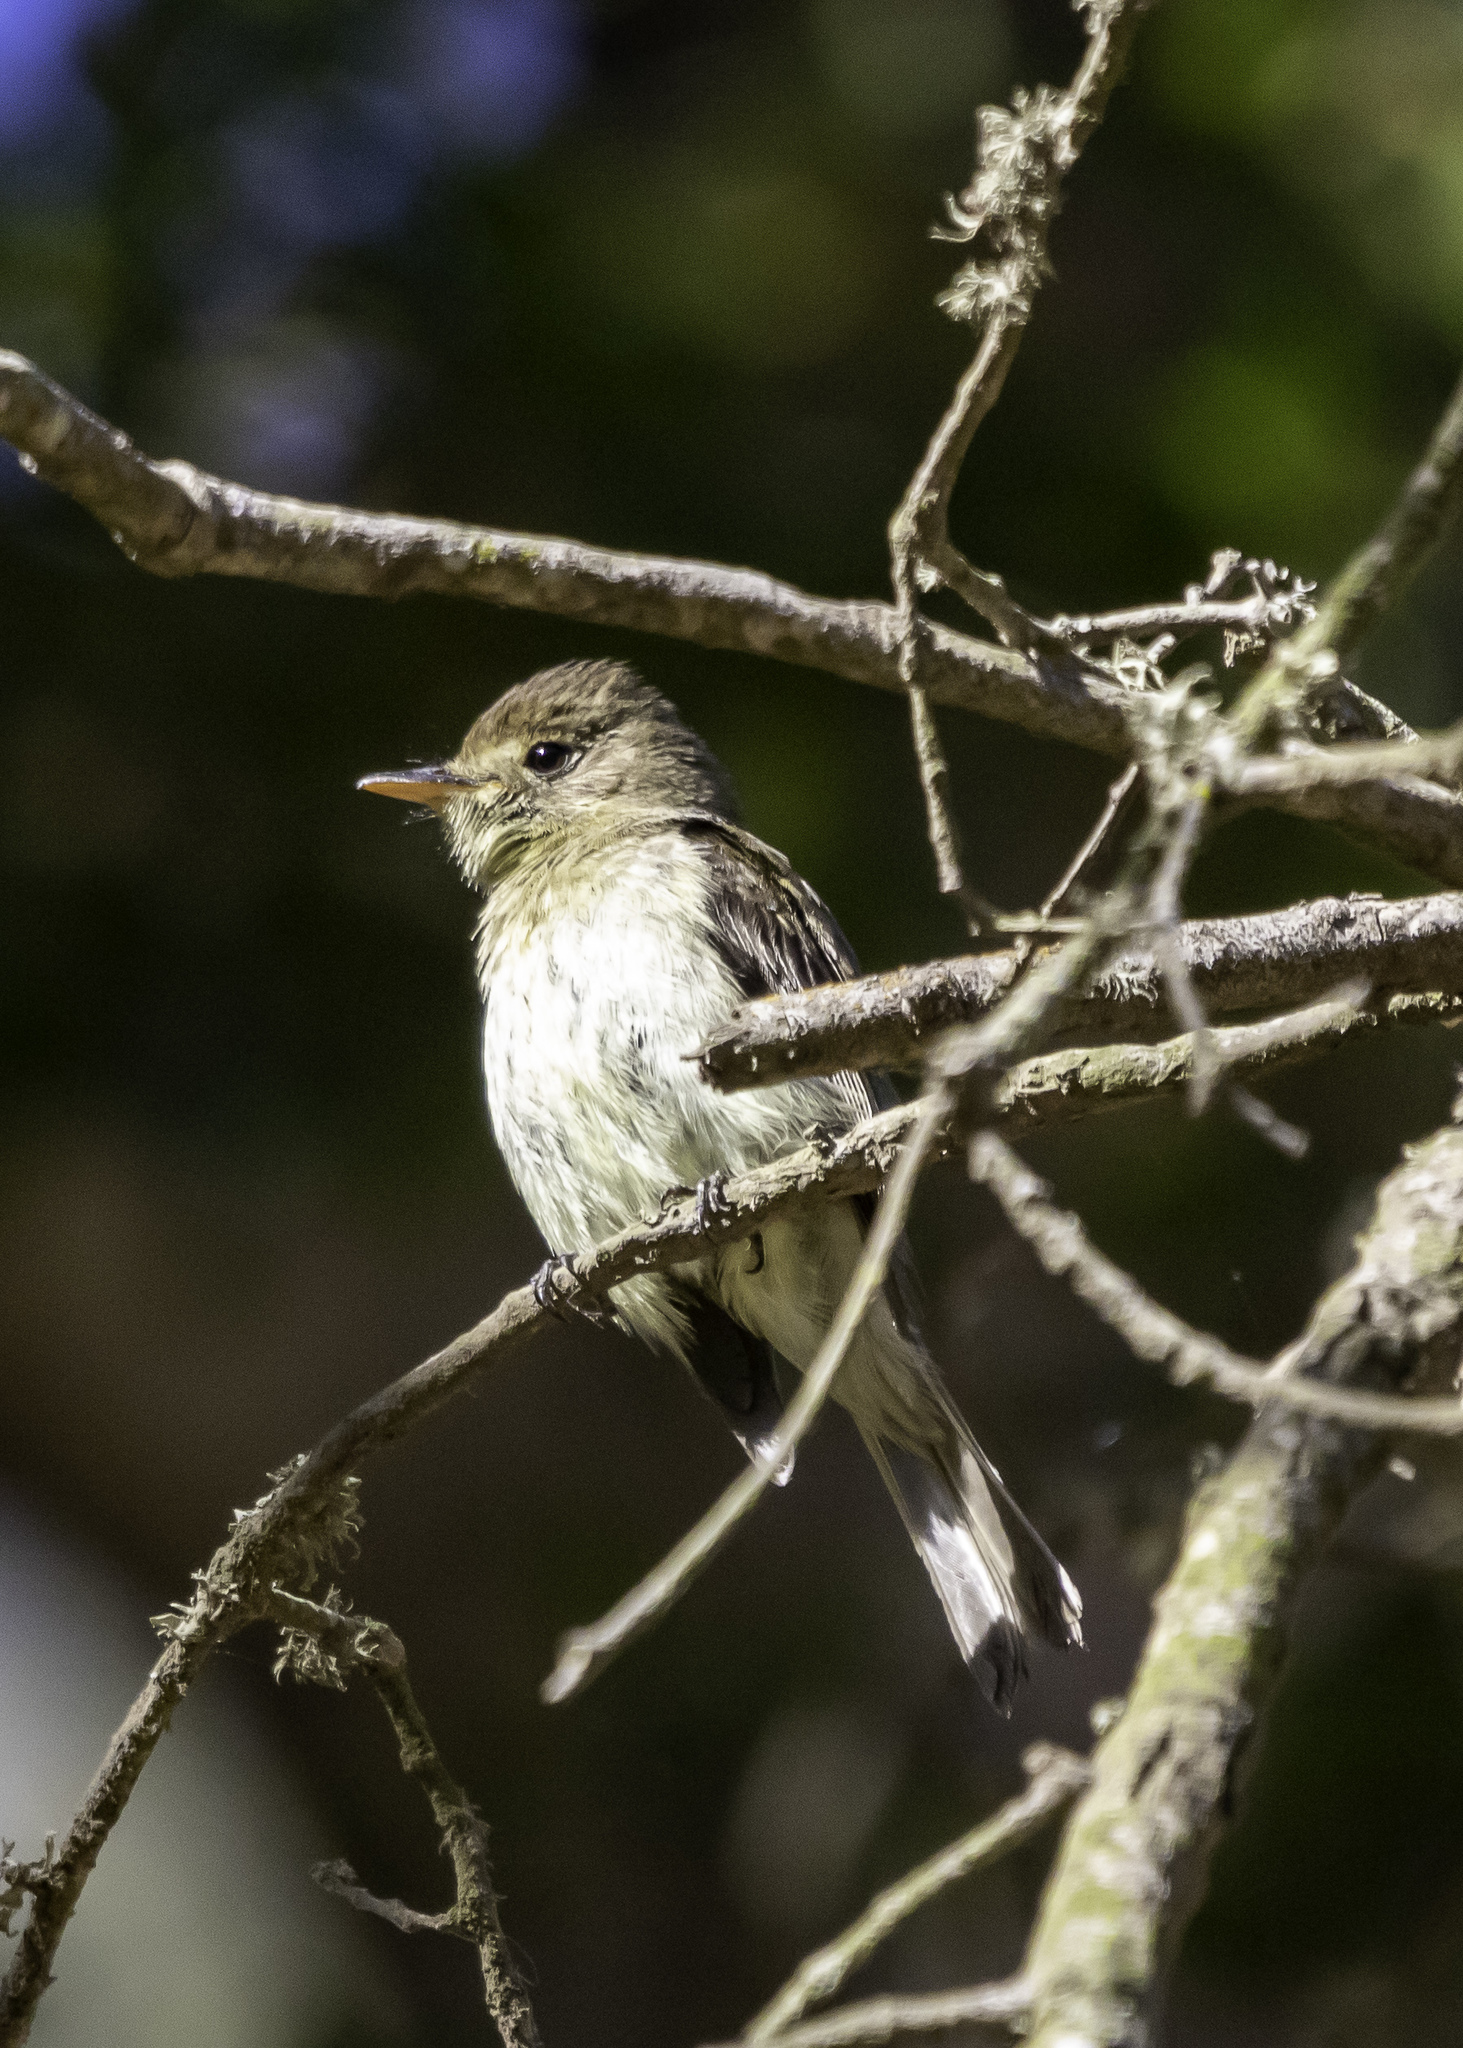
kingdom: Animalia
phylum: Chordata
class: Aves
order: Passeriformes
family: Tyrannidae
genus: Empidonax
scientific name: Empidonax difficilis
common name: Pacific-slope flycatcher
